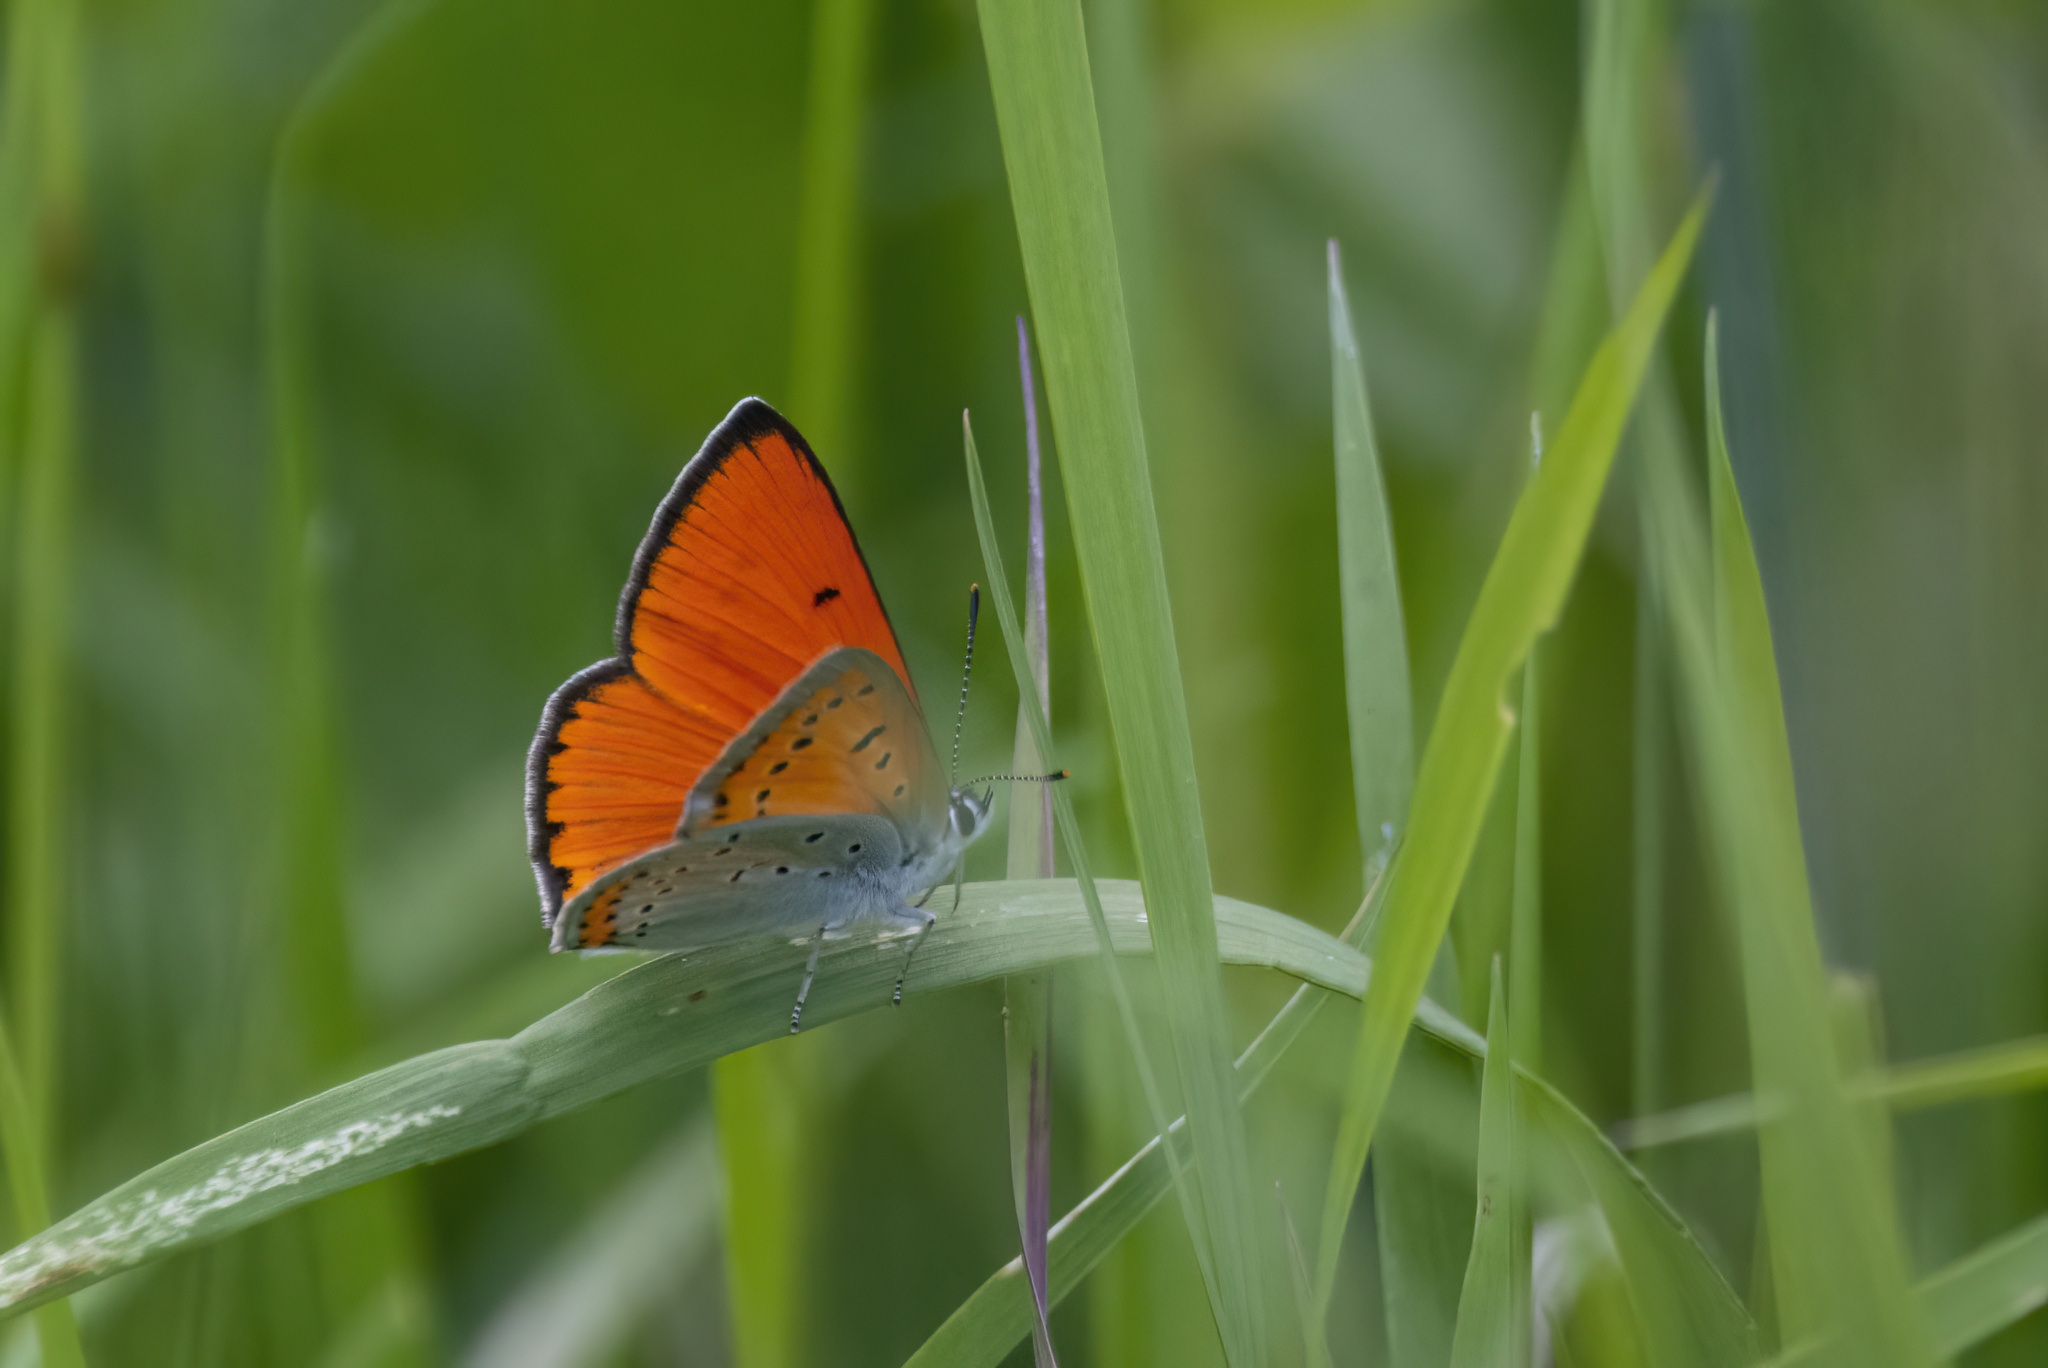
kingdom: Animalia
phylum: Arthropoda
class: Insecta
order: Lepidoptera
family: Lycaenidae
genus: Lycaena
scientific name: Lycaena dispar
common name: Large copper
